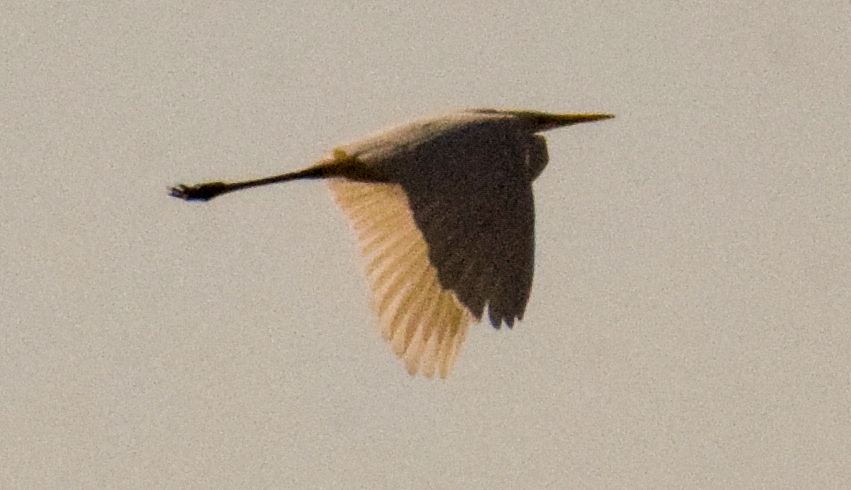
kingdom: Animalia
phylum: Chordata
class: Aves
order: Pelecaniformes
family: Ardeidae
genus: Ardea
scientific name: Ardea alba
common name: Great egret
